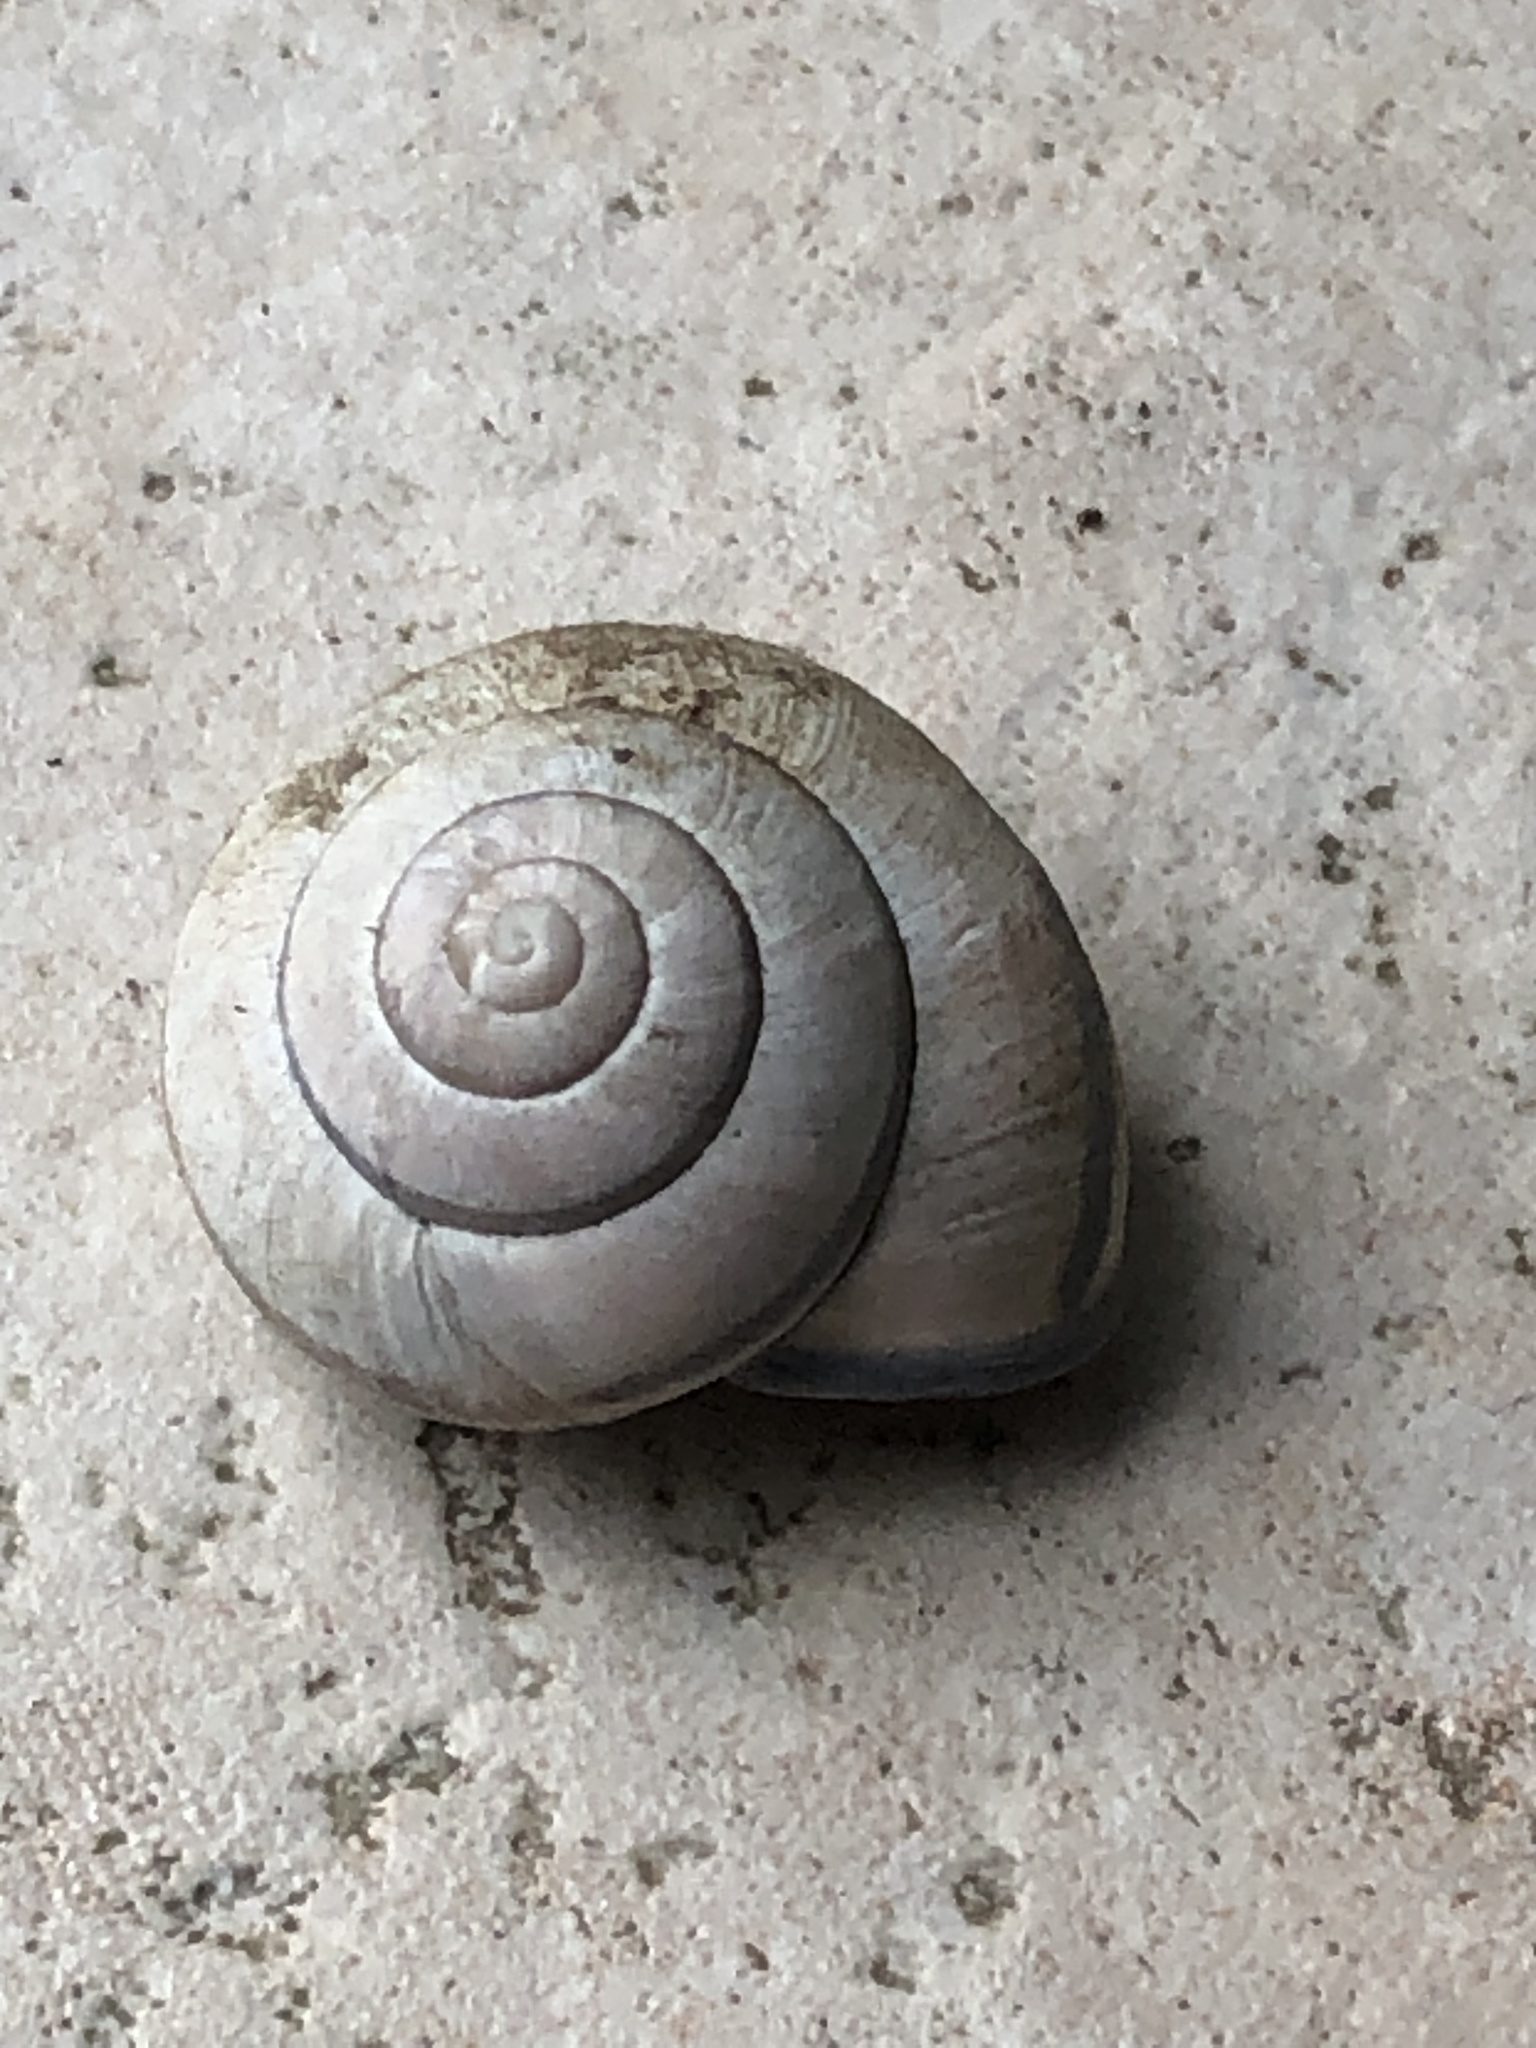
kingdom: Animalia
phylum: Mollusca
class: Gastropoda
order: Stylommatophora
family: Helicidae
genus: Cepaea
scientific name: Cepaea nemoralis
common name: Grovesnail
